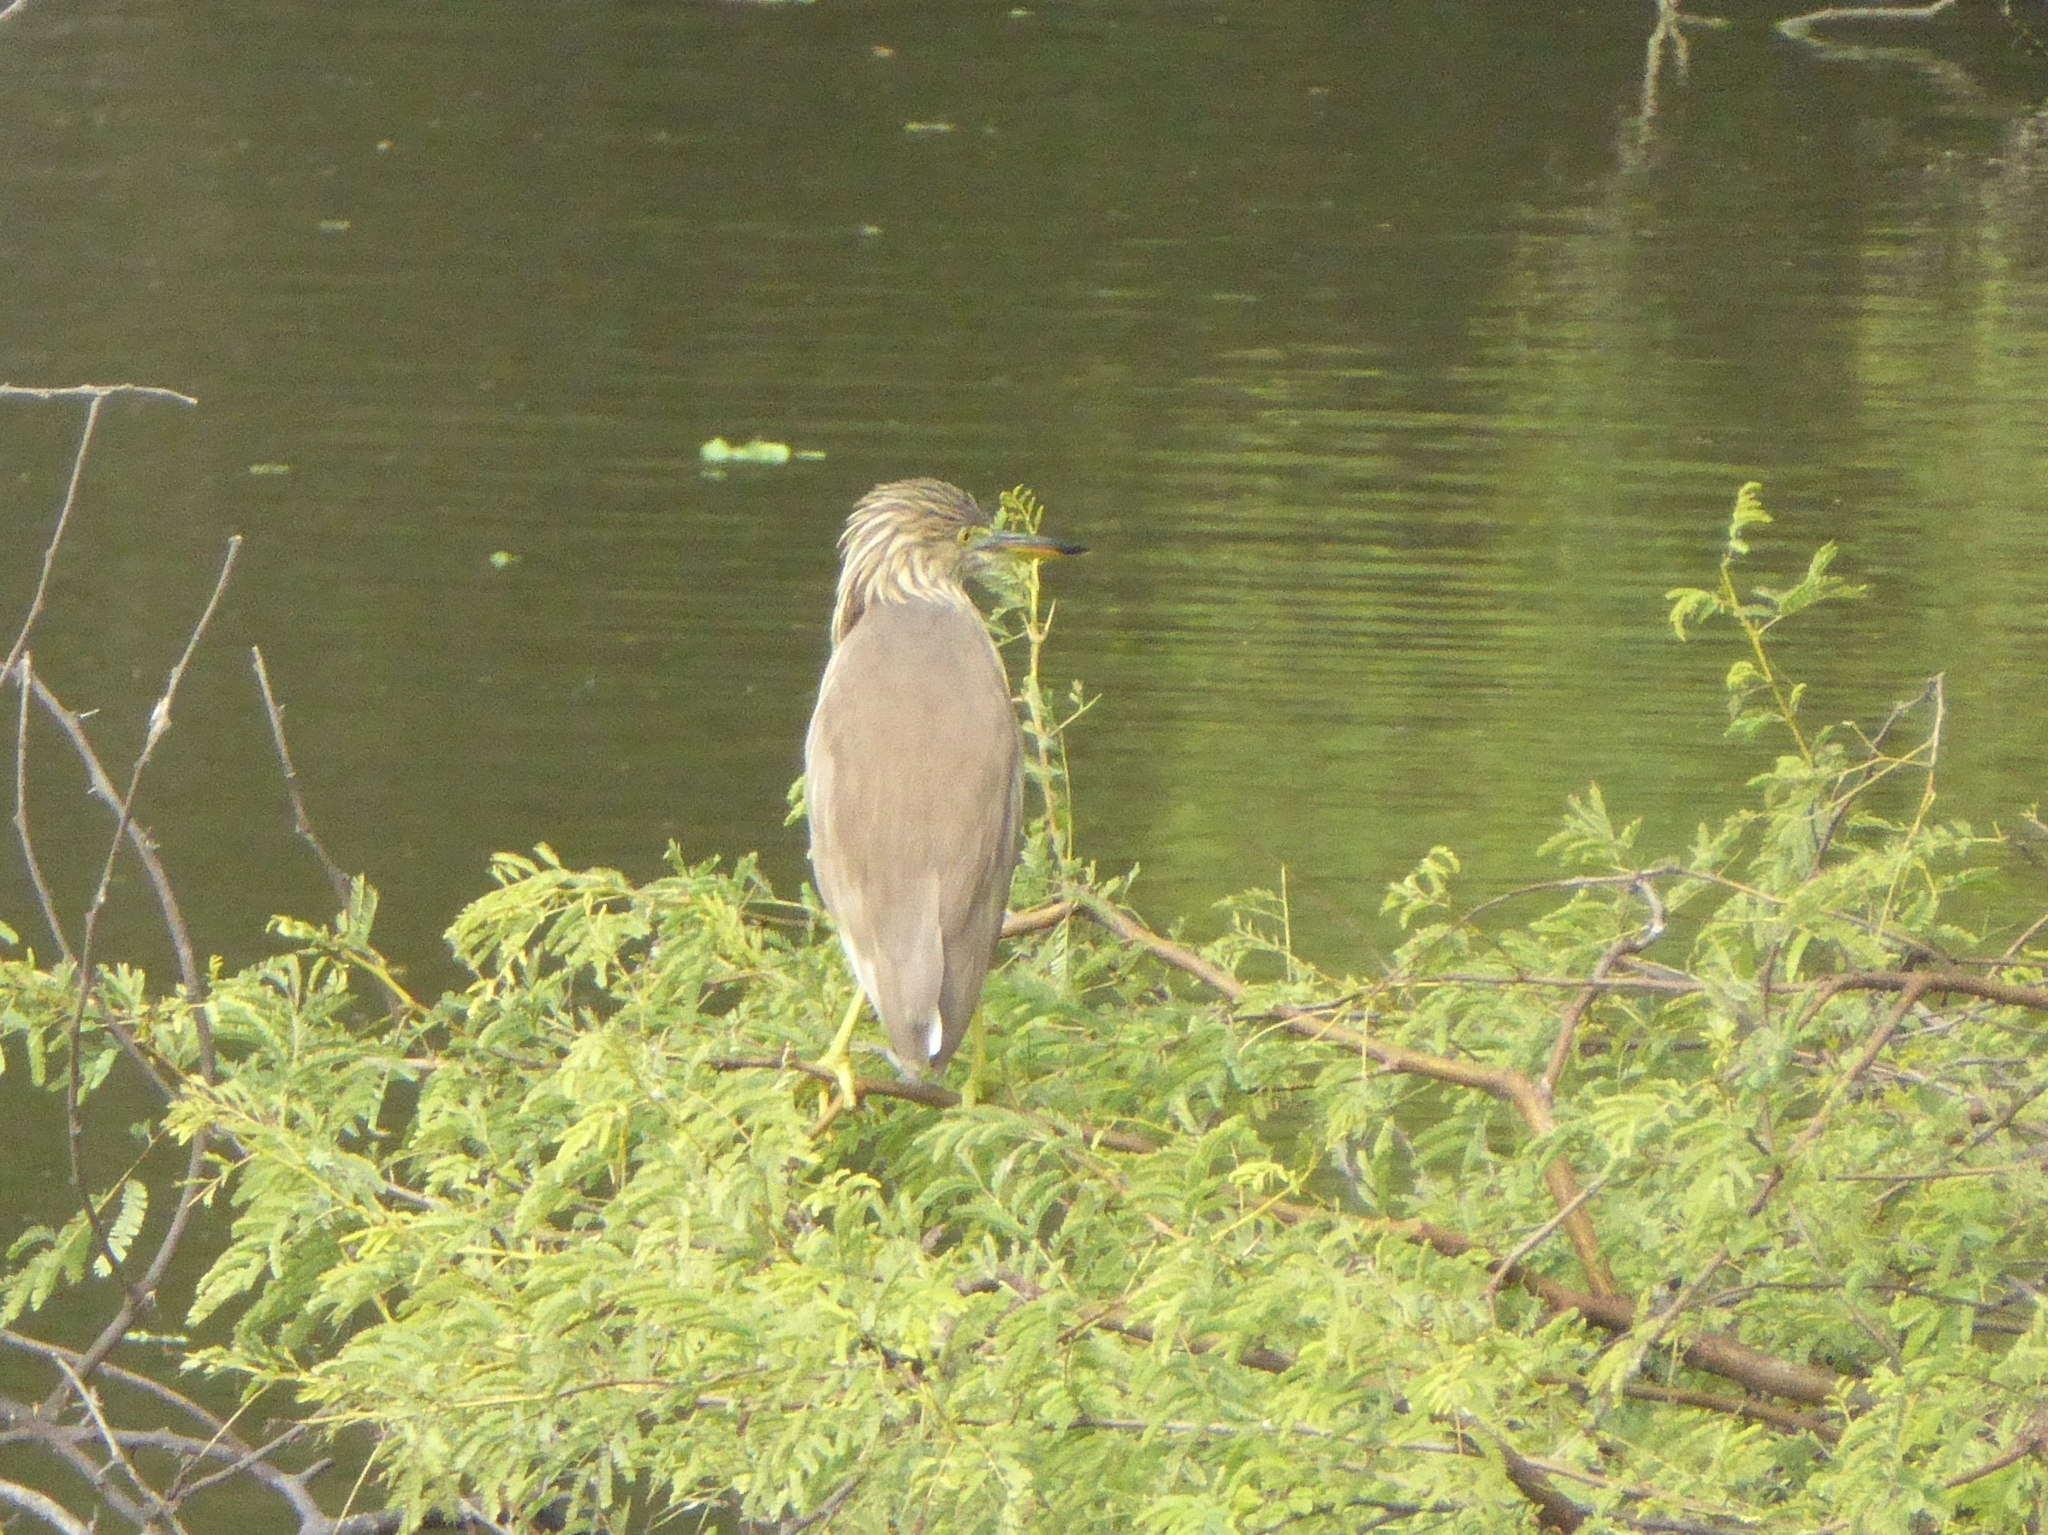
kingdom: Animalia
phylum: Chordata
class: Aves
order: Pelecaniformes
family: Ardeidae
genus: Ardeola
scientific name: Ardeola grayii
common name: Indian pond heron
